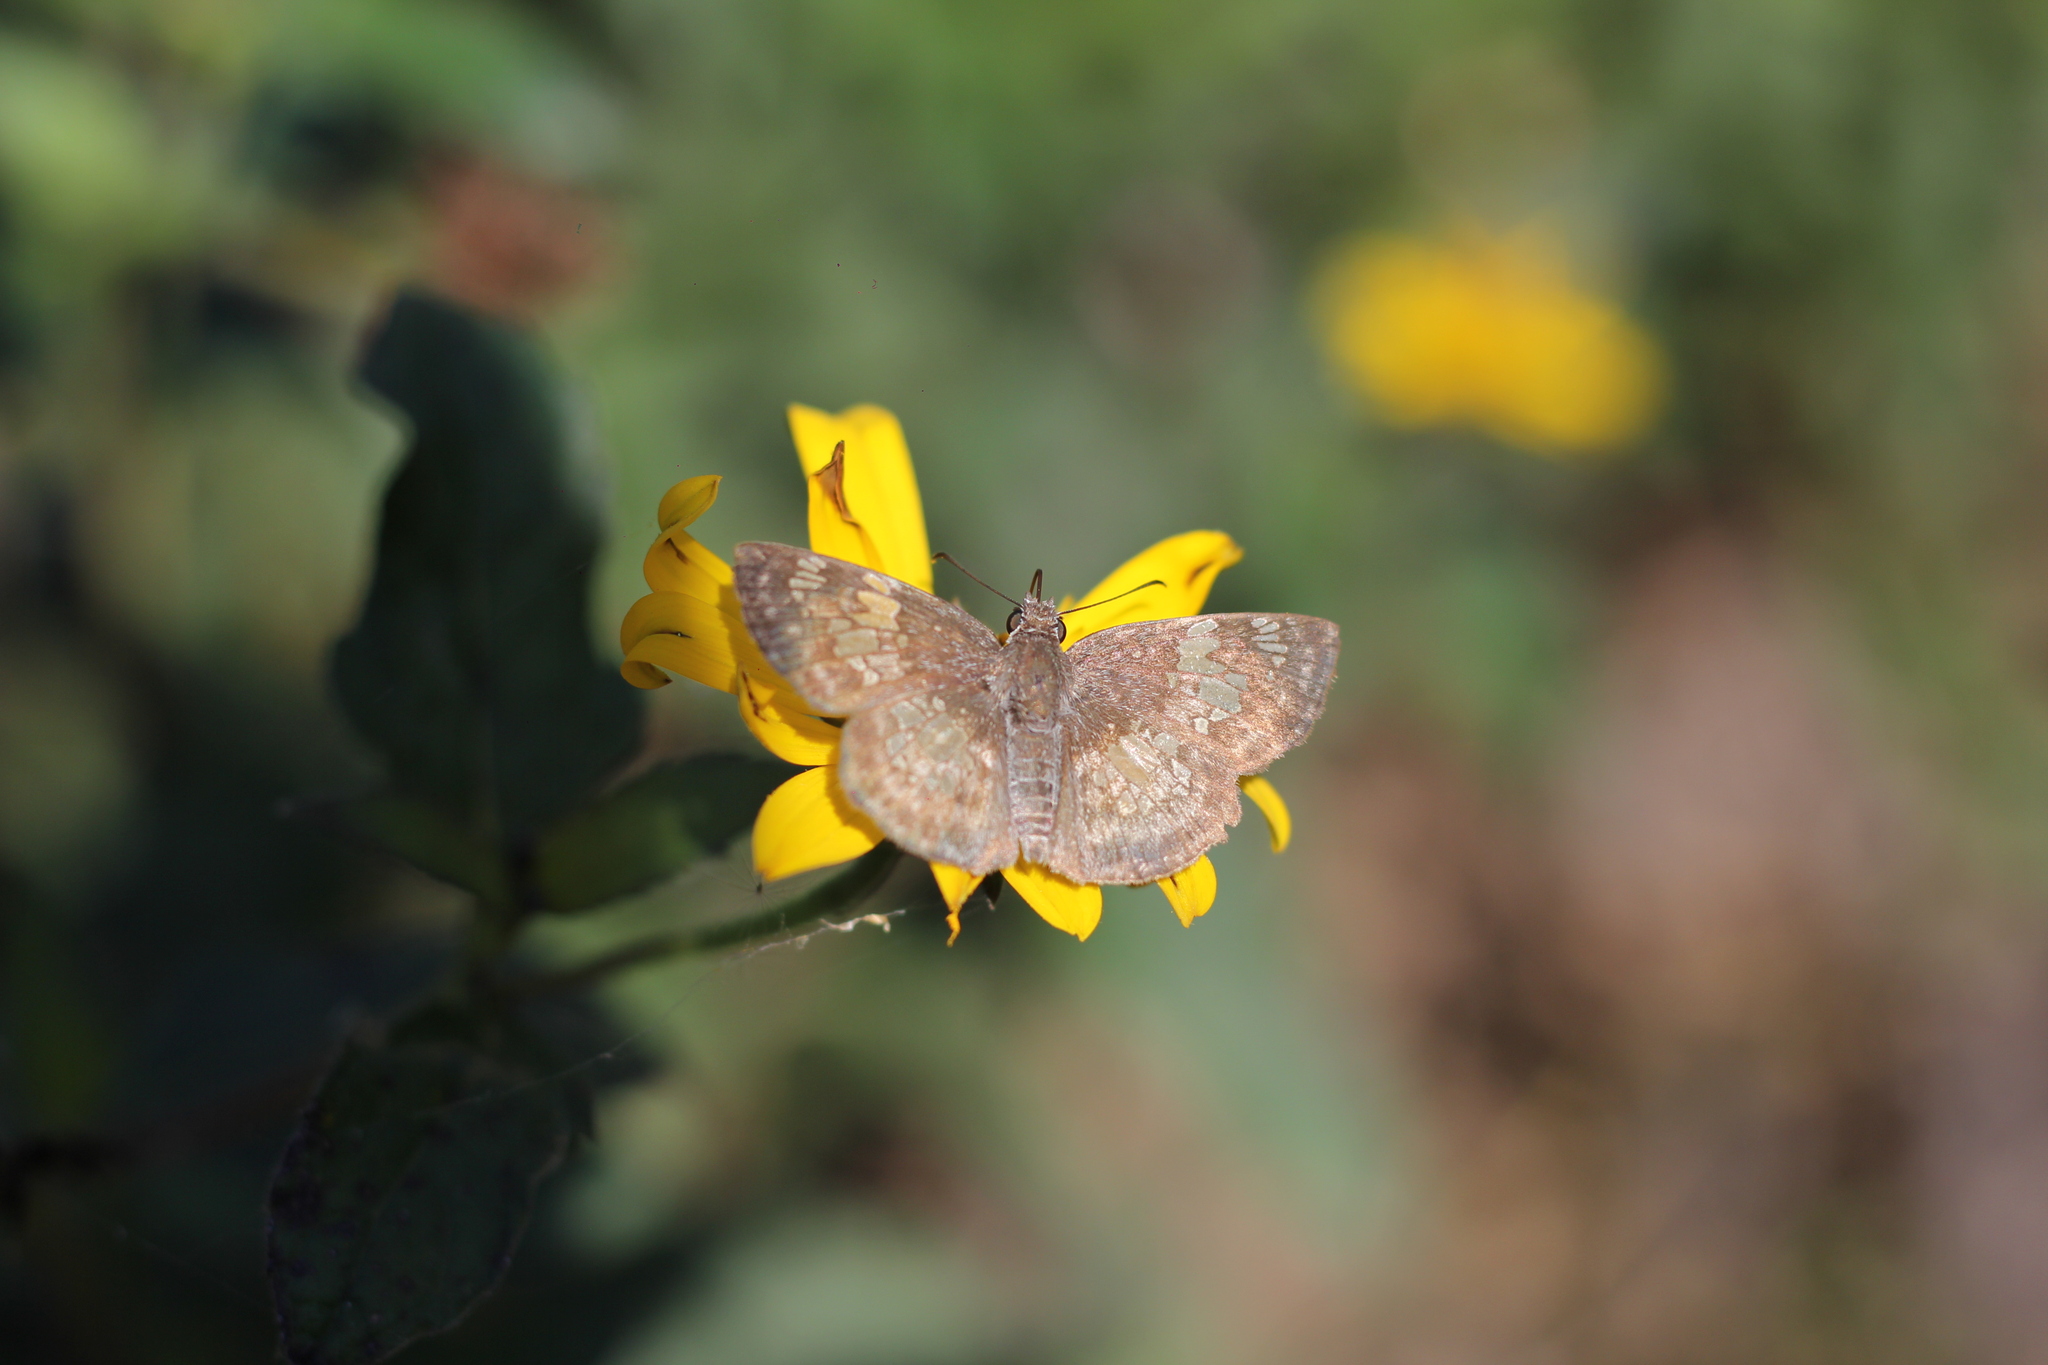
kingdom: Animalia
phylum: Arthropoda
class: Insecta
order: Lepidoptera
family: Hesperiidae
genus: Xenophanes
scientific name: Xenophanes tryxus
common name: Glassy-winged skipper
